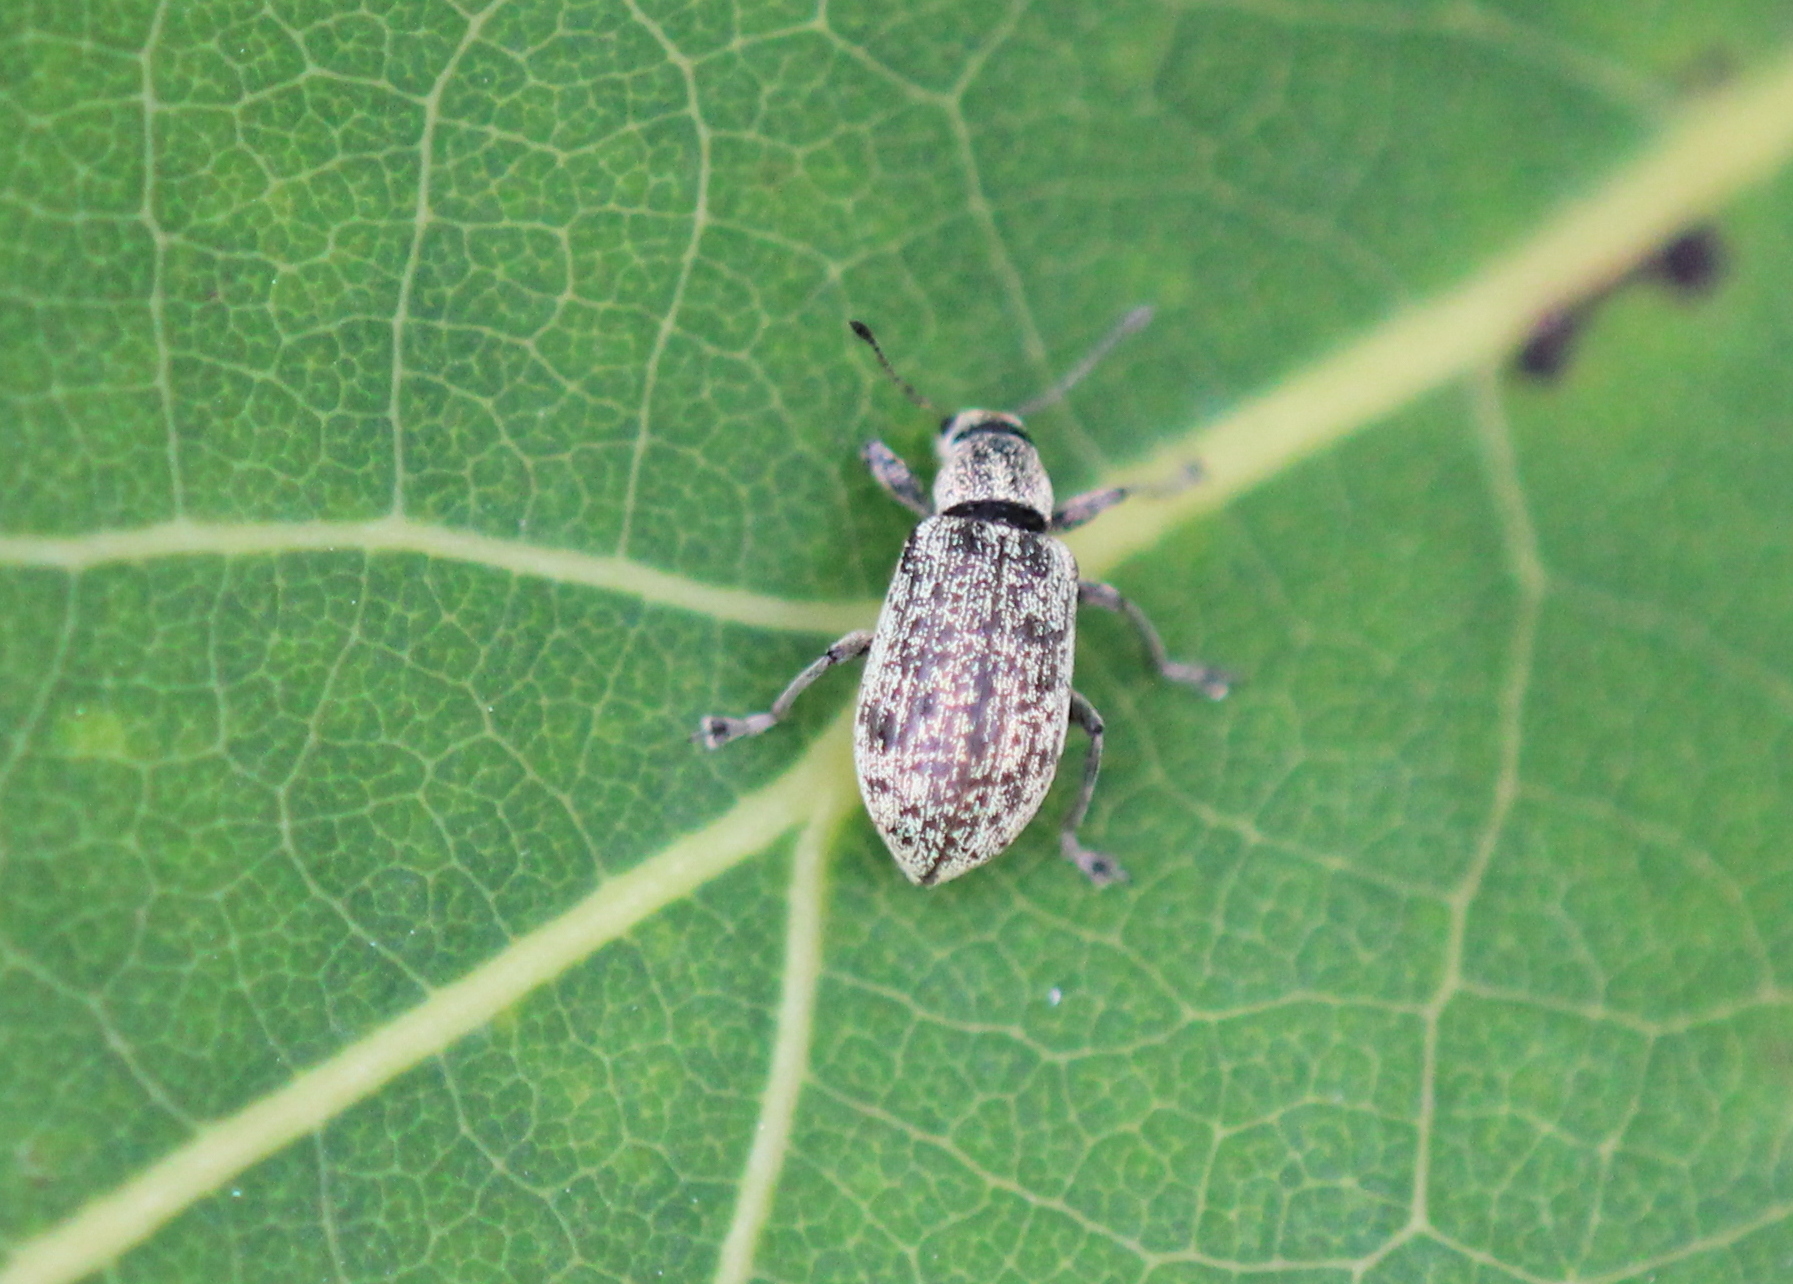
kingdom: Animalia
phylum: Arthropoda
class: Insecta
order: Coleoptera
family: Curculionidae
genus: Polydrusus
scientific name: Polydrusus cervinus
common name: Weevil
